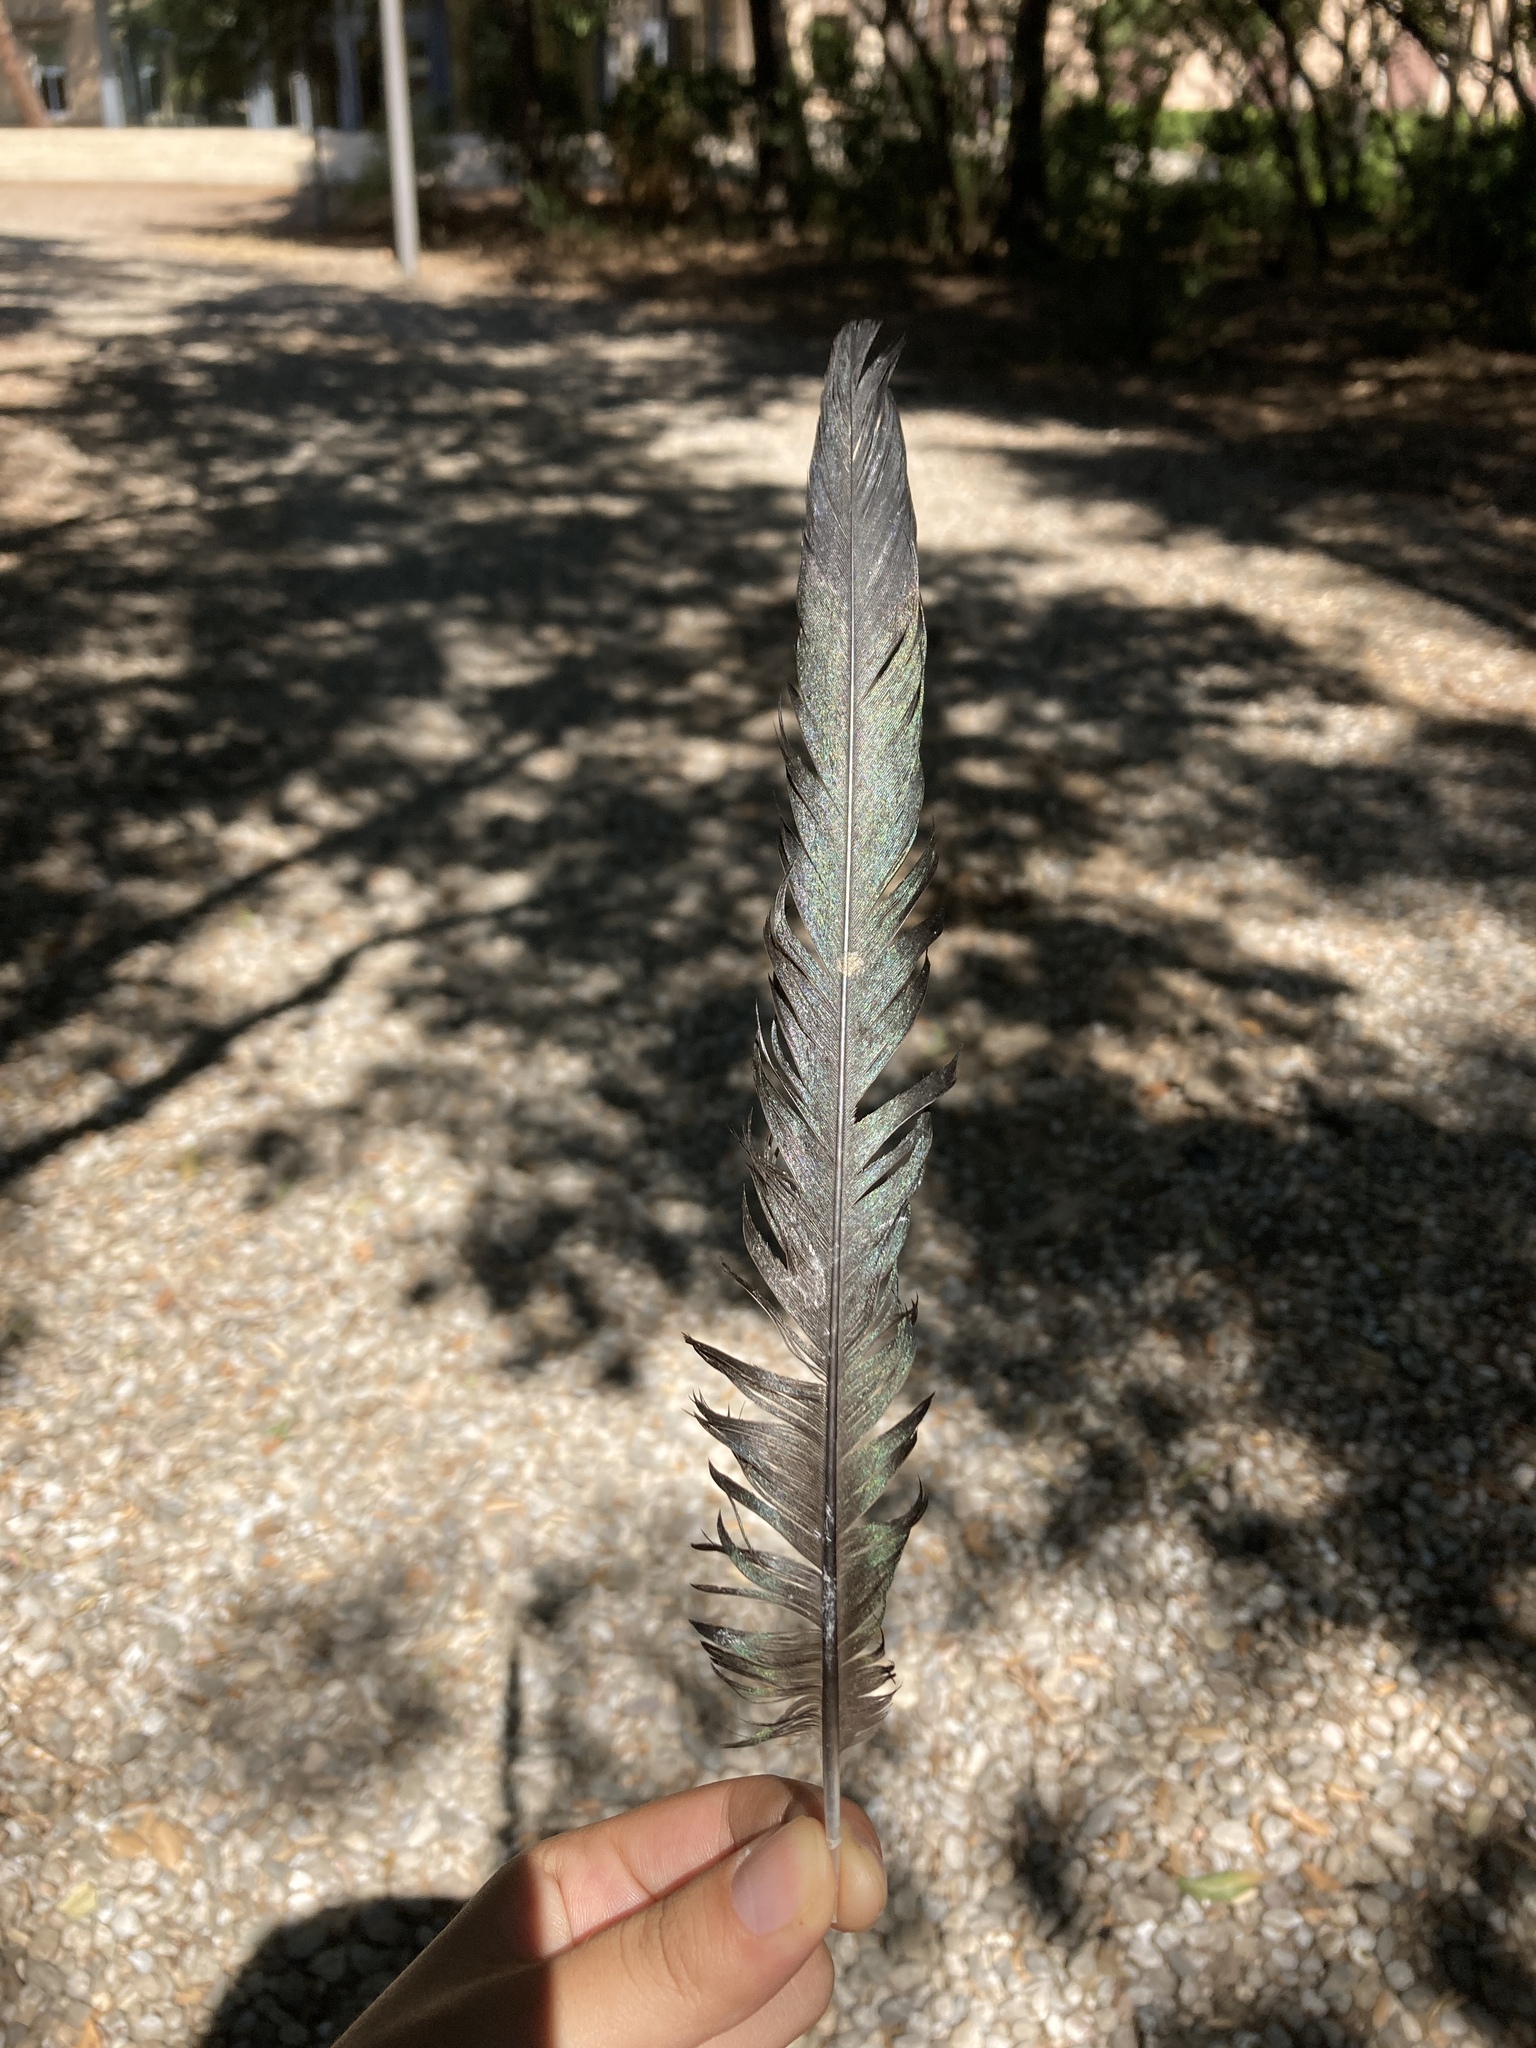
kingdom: Animalia
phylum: Chordata
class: Aves
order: Passeriformes
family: Corvidae
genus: Pica
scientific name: Pica pica
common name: Eurasian magpie
